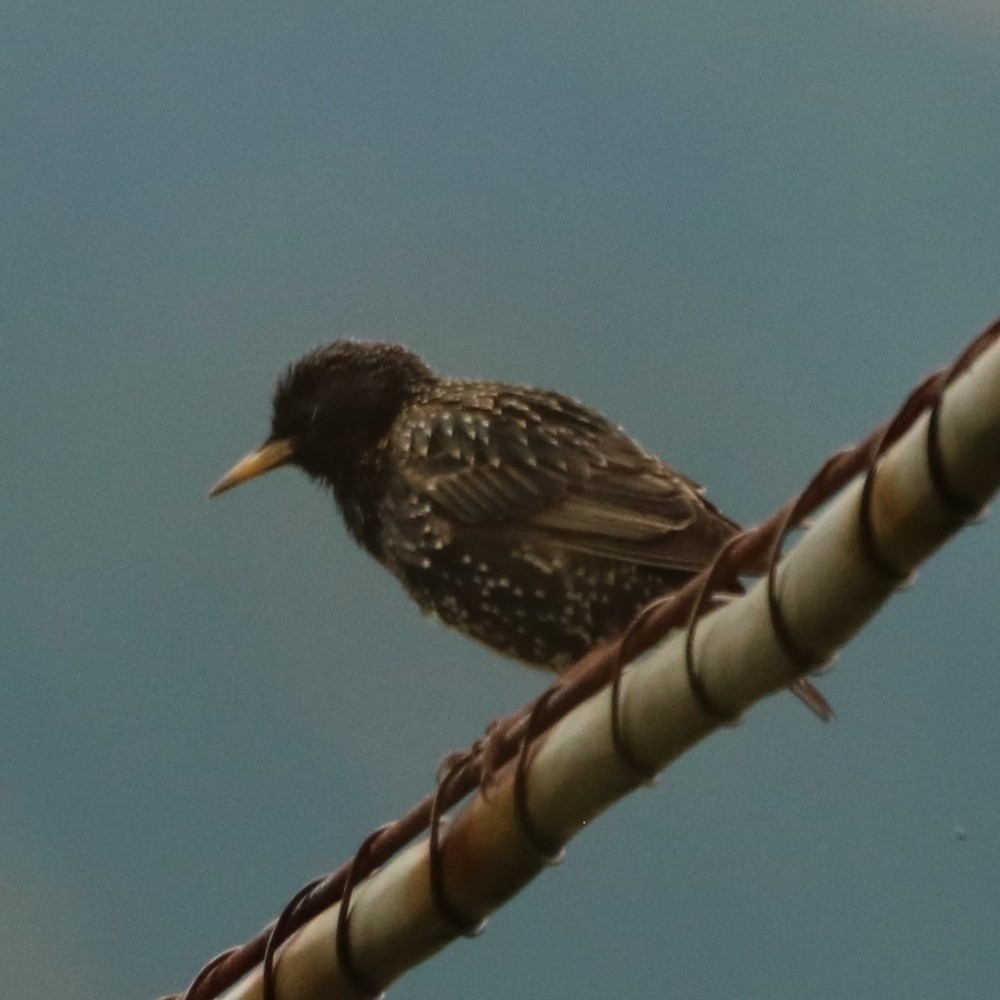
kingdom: Animalia
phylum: Chordata
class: Aves
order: Passeriformes
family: Sturnidae
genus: Sturnus
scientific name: Sturnus vulgaris
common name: Common starling
